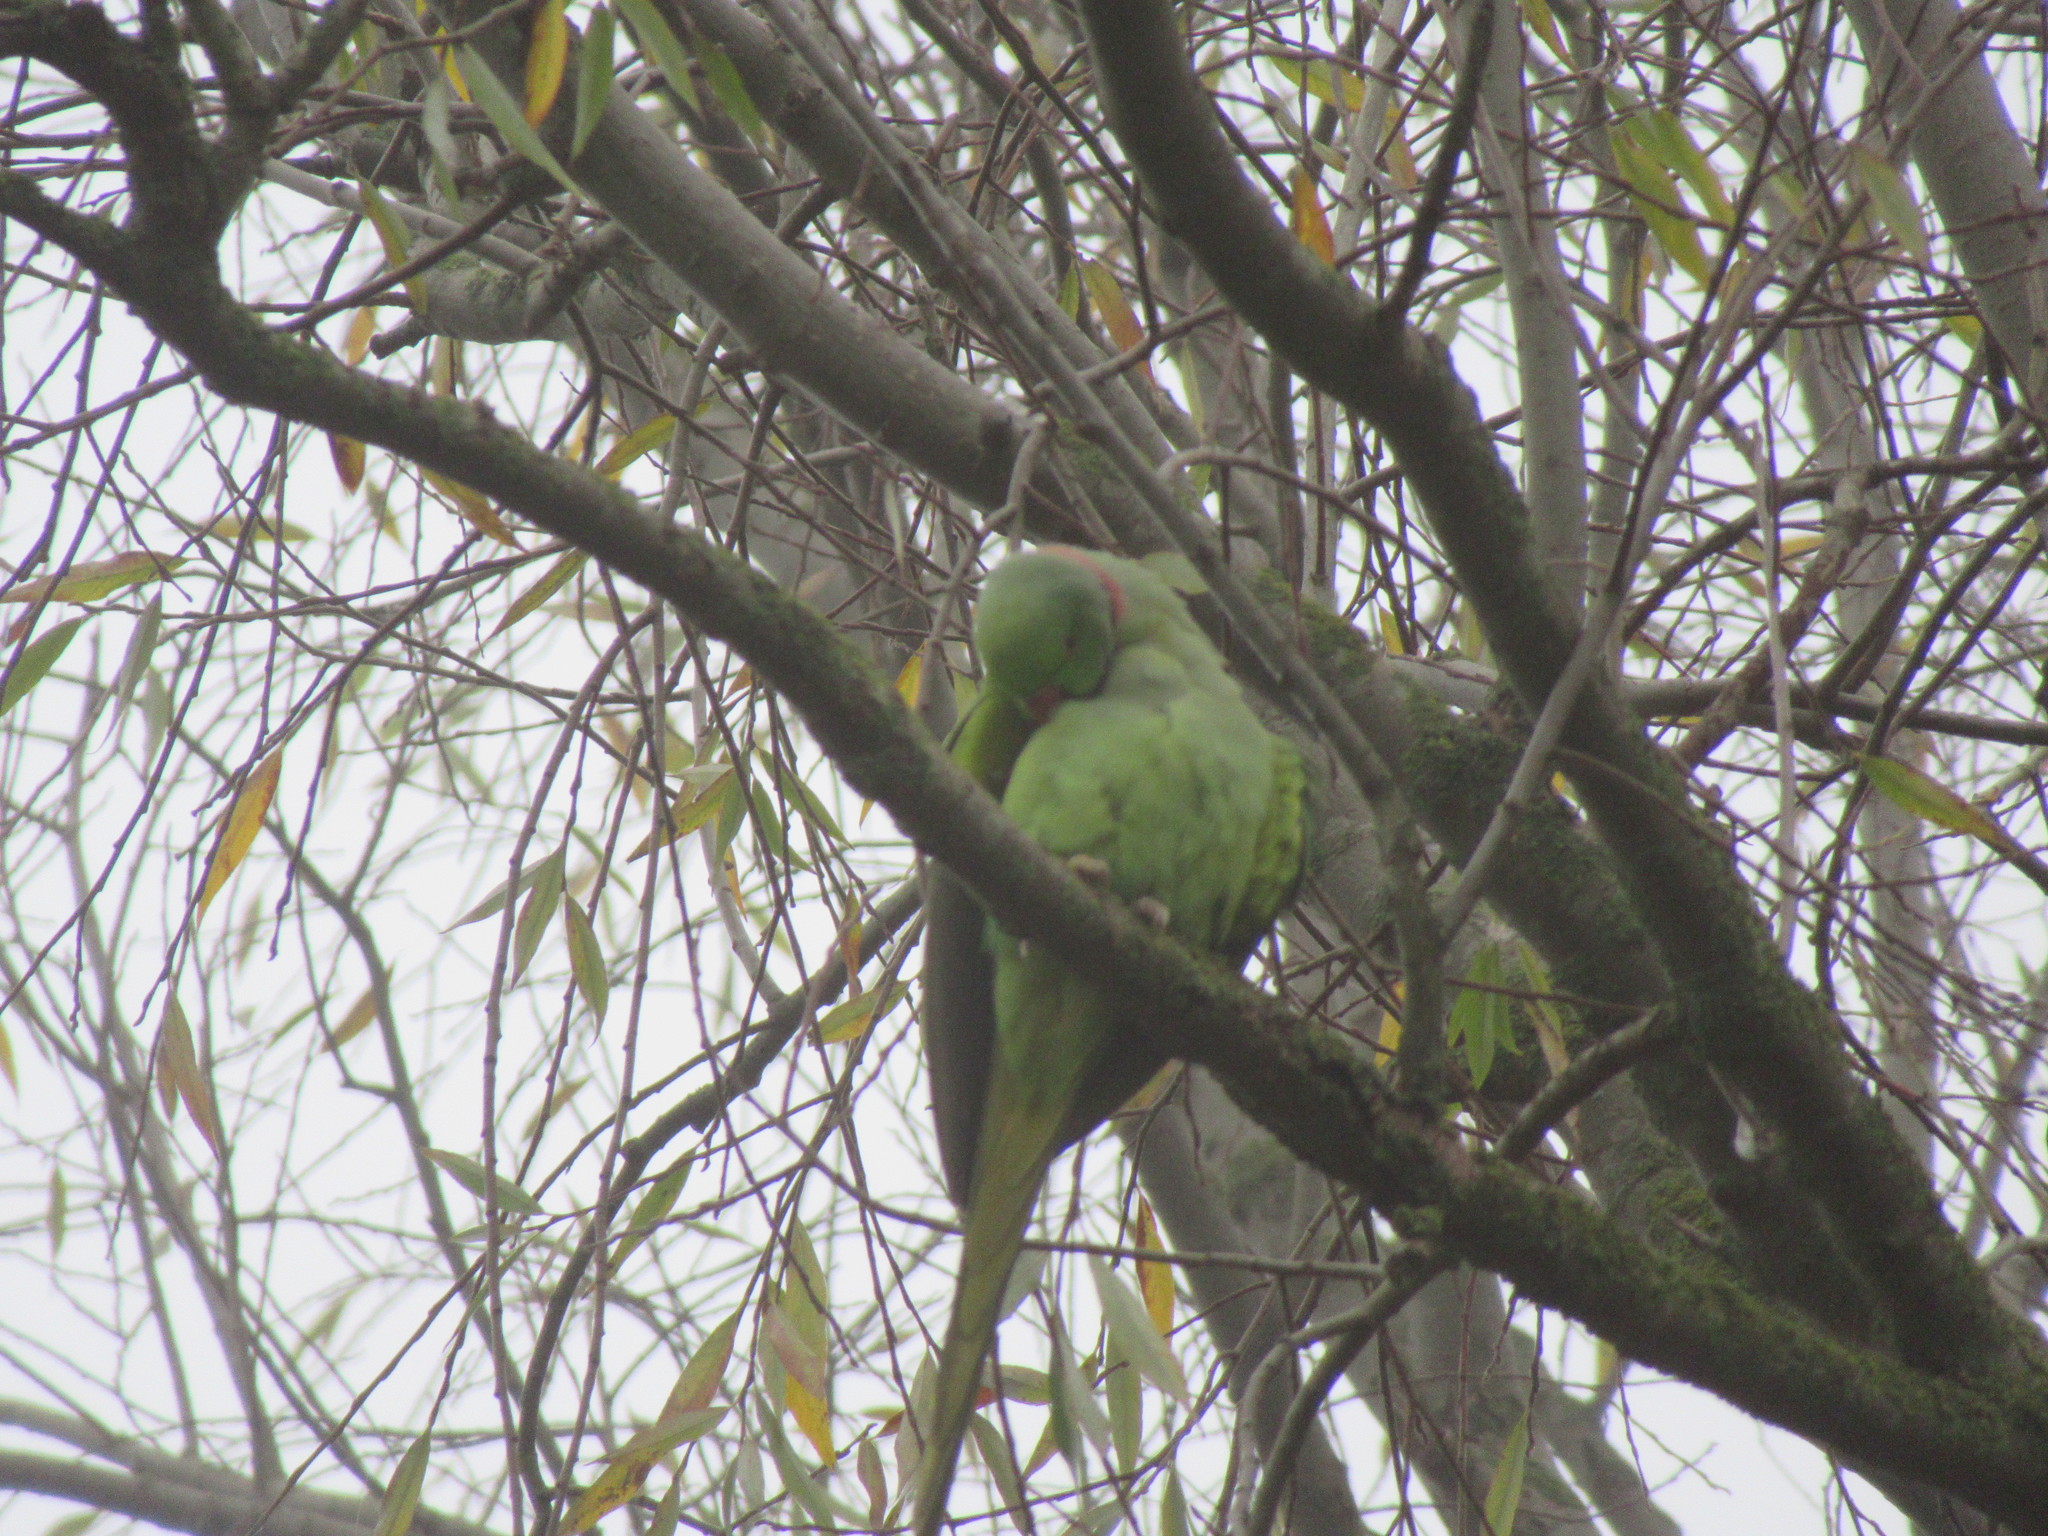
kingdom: Animalia
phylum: Chordata
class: Aves
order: Psittaciformes
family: Psittacidae
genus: Psittacula
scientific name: Psittacula krameri
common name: Rose-ringed parakeet
